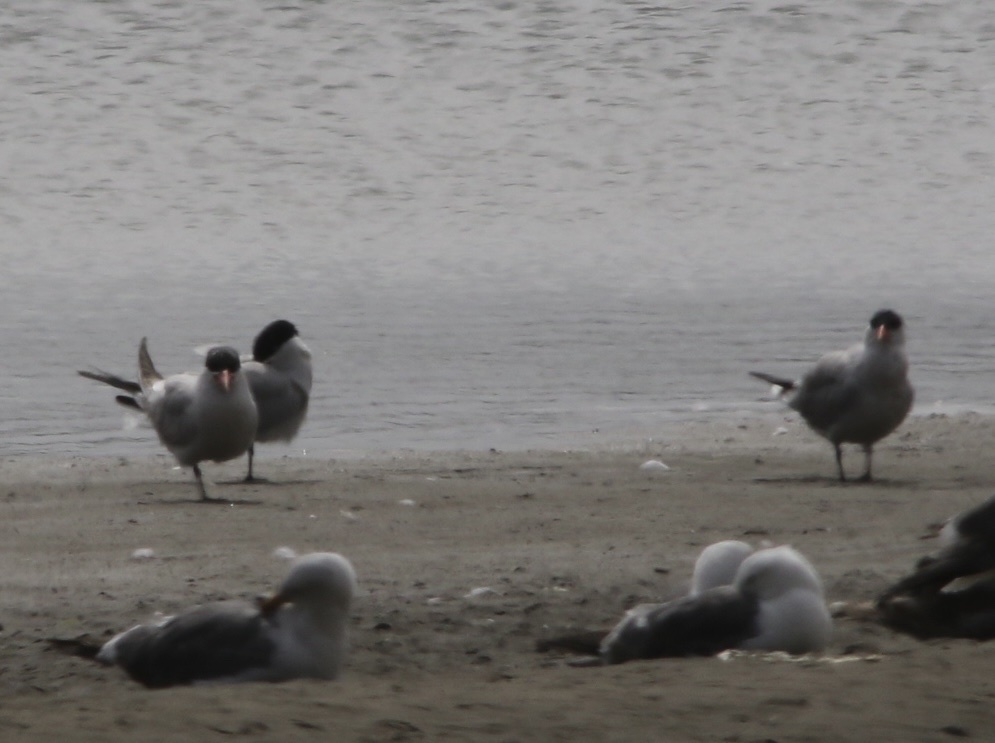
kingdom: Animalia
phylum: Chordata
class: Aves
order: Charadriiformes
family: Laridae
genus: Hydroprogne
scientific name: Hydroprogne caspia
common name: Caspian tern
